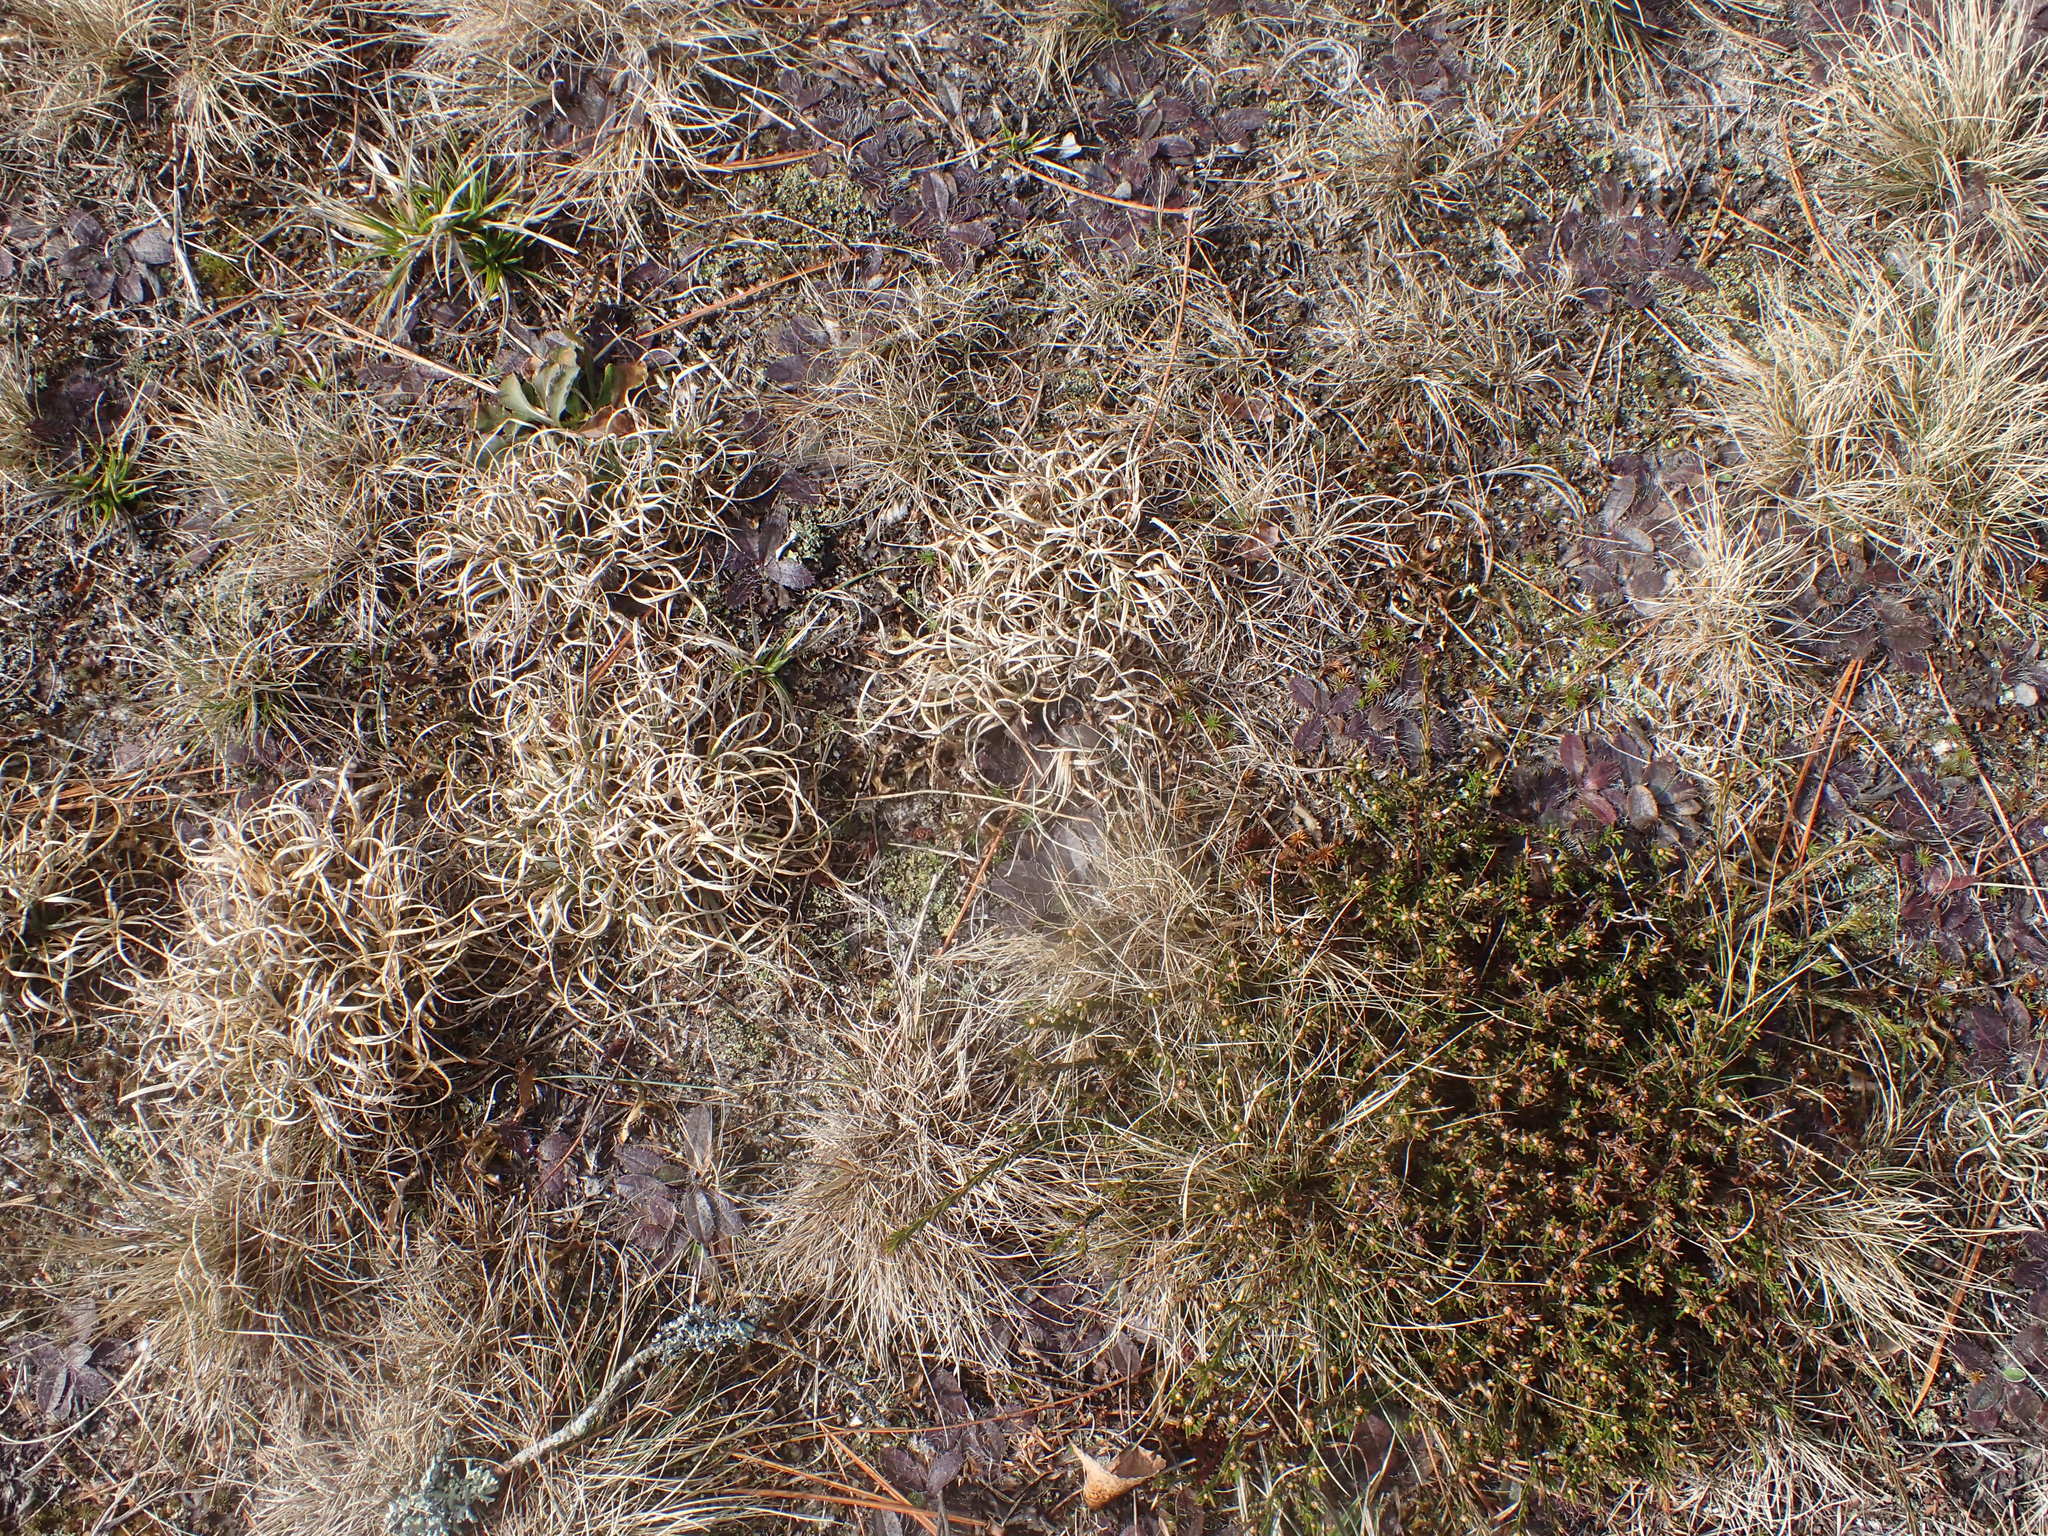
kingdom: Plantae
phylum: Tracheophyta
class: Liliopsida
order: Poales
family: Poaceae
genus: Danthonia
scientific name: Danthonia spicata
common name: Common wild oatgrass
